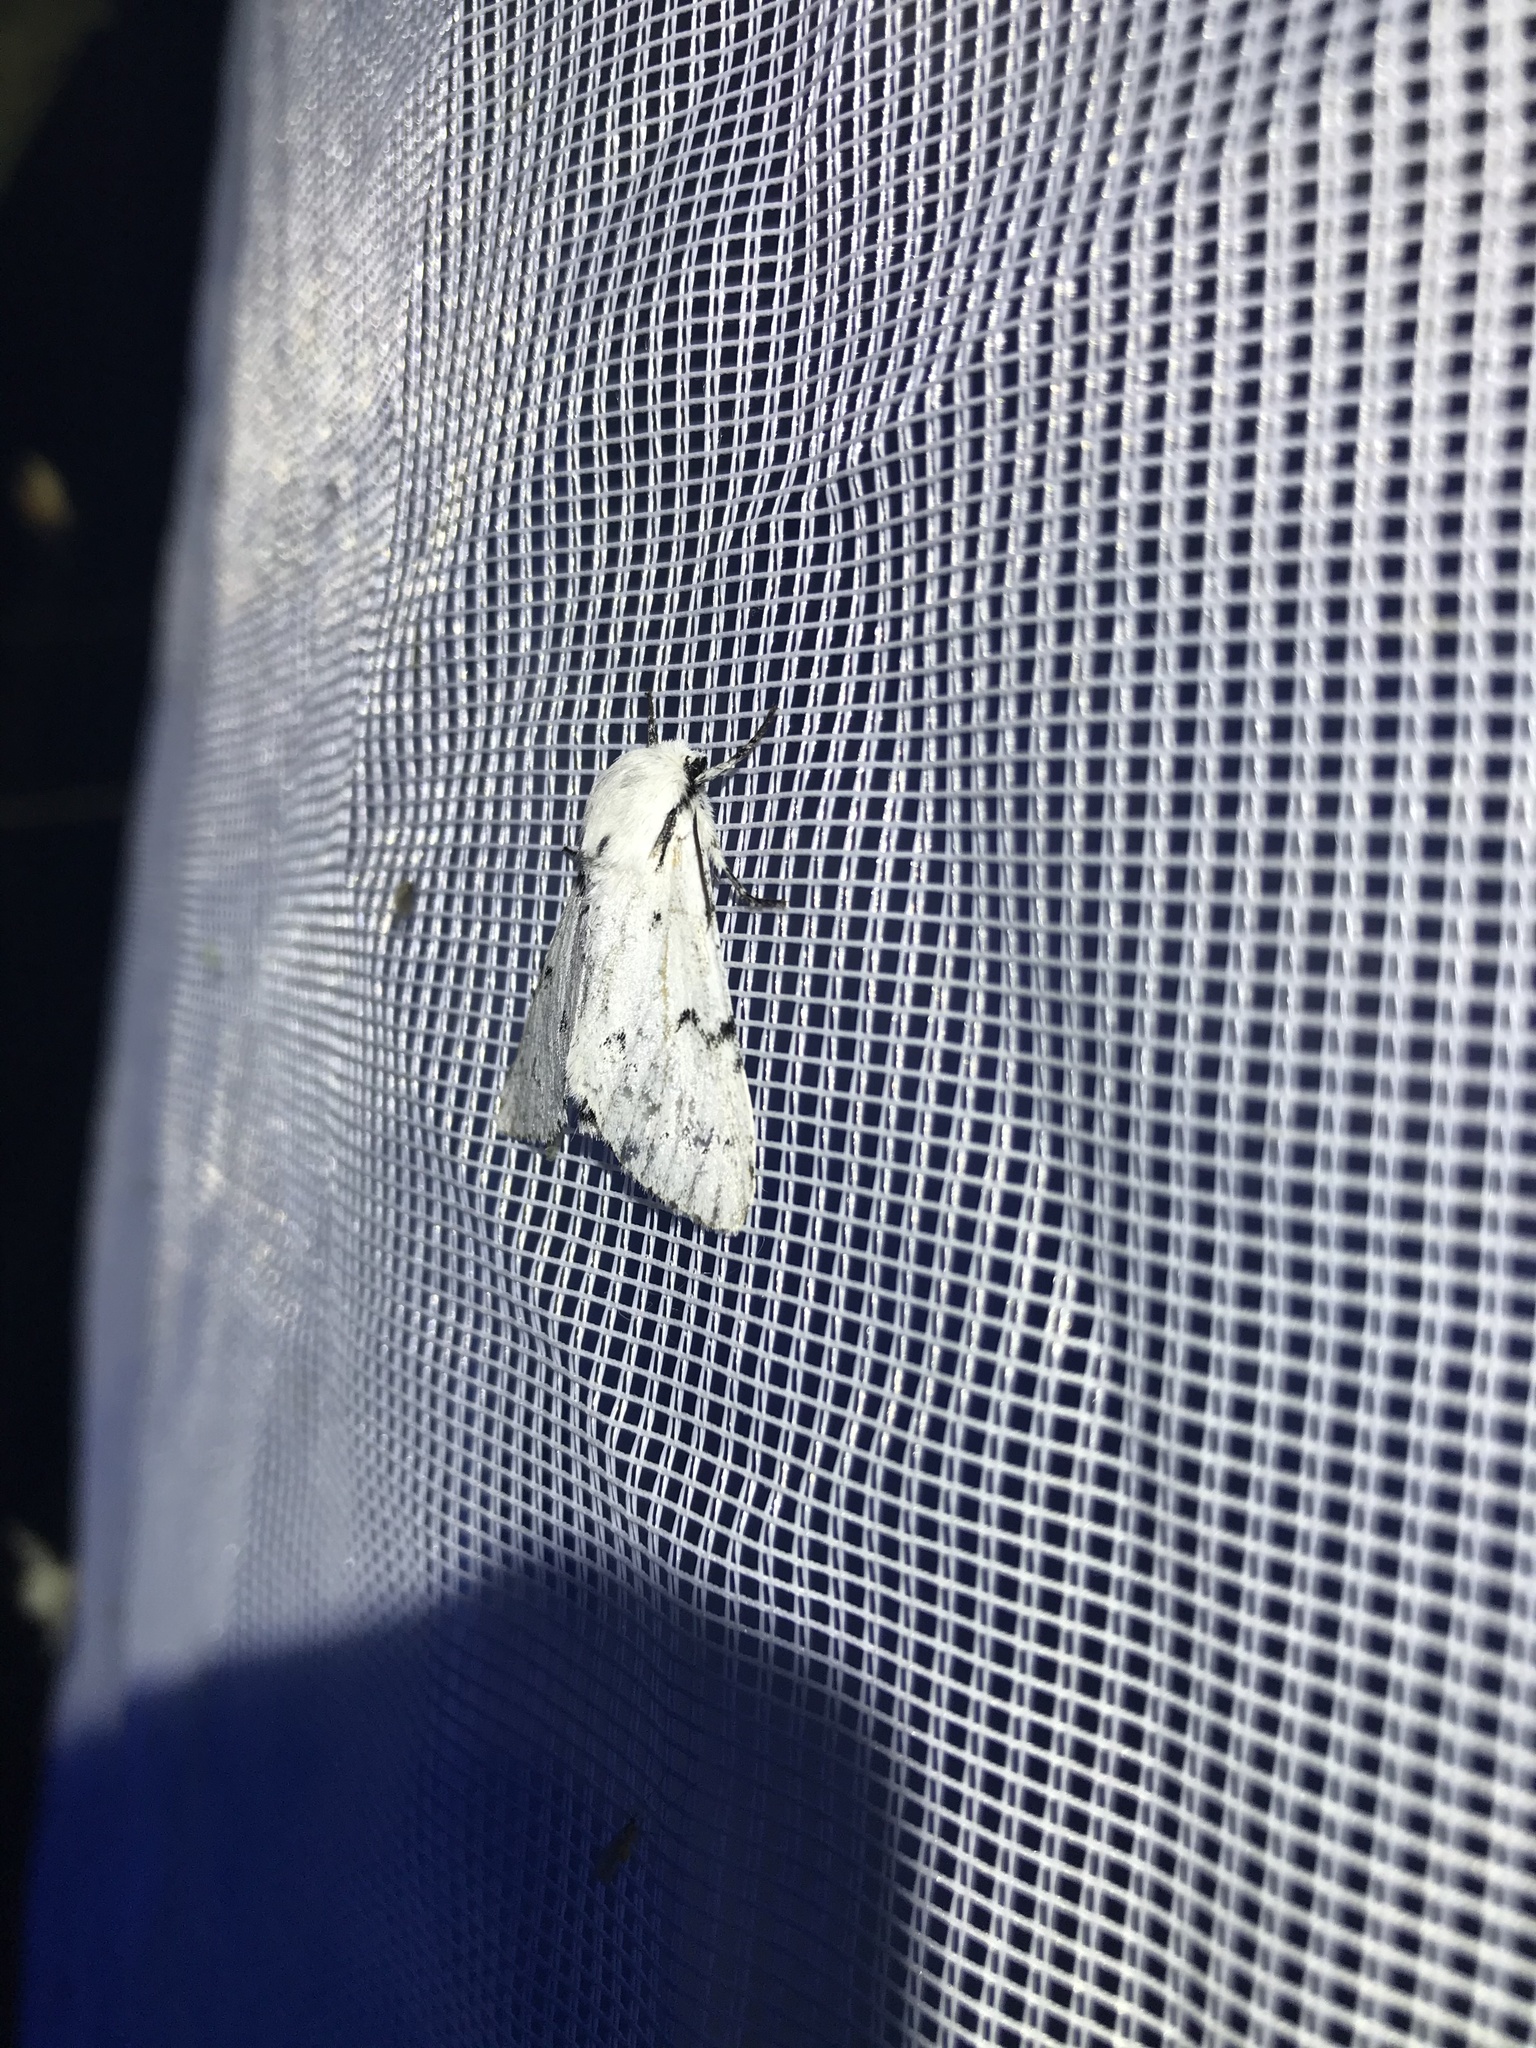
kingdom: Animalia
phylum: Arthropoda
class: Insecta
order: Lepidoptera
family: Noctuidae
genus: Acronicta
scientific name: Acronicta leporina
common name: Miller
